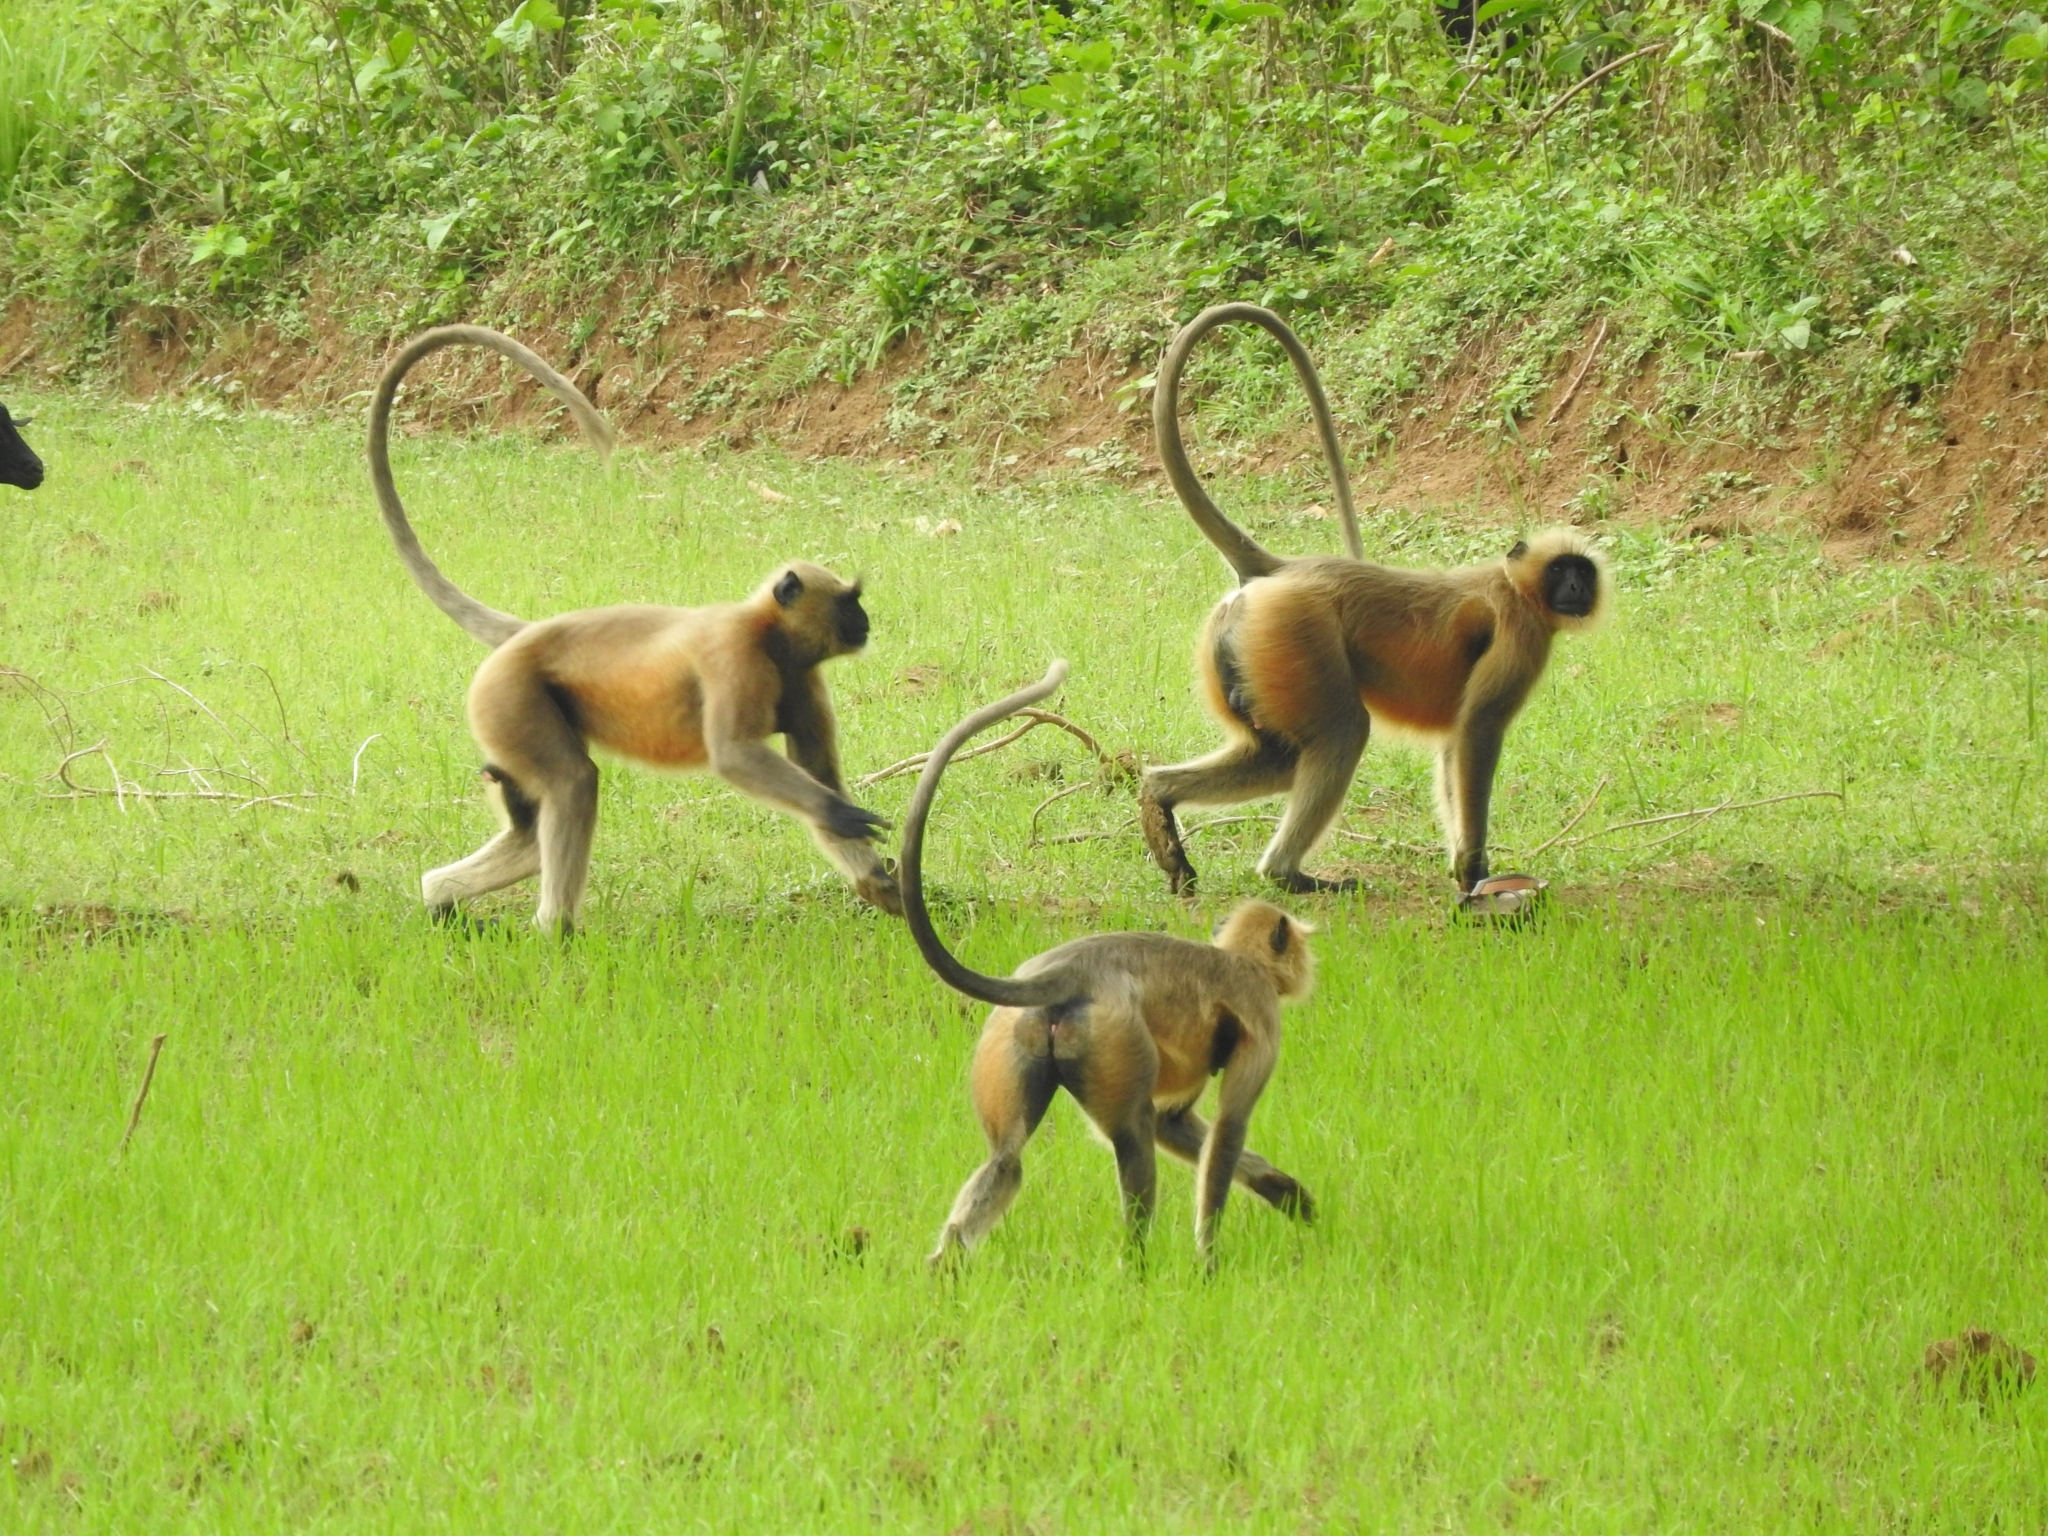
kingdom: Animalia
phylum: Chordata
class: Mammalia
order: Primates
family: Cercopithecidae
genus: Semnopithecus
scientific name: Semnopithecus entellus
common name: Northern plains gray langur
